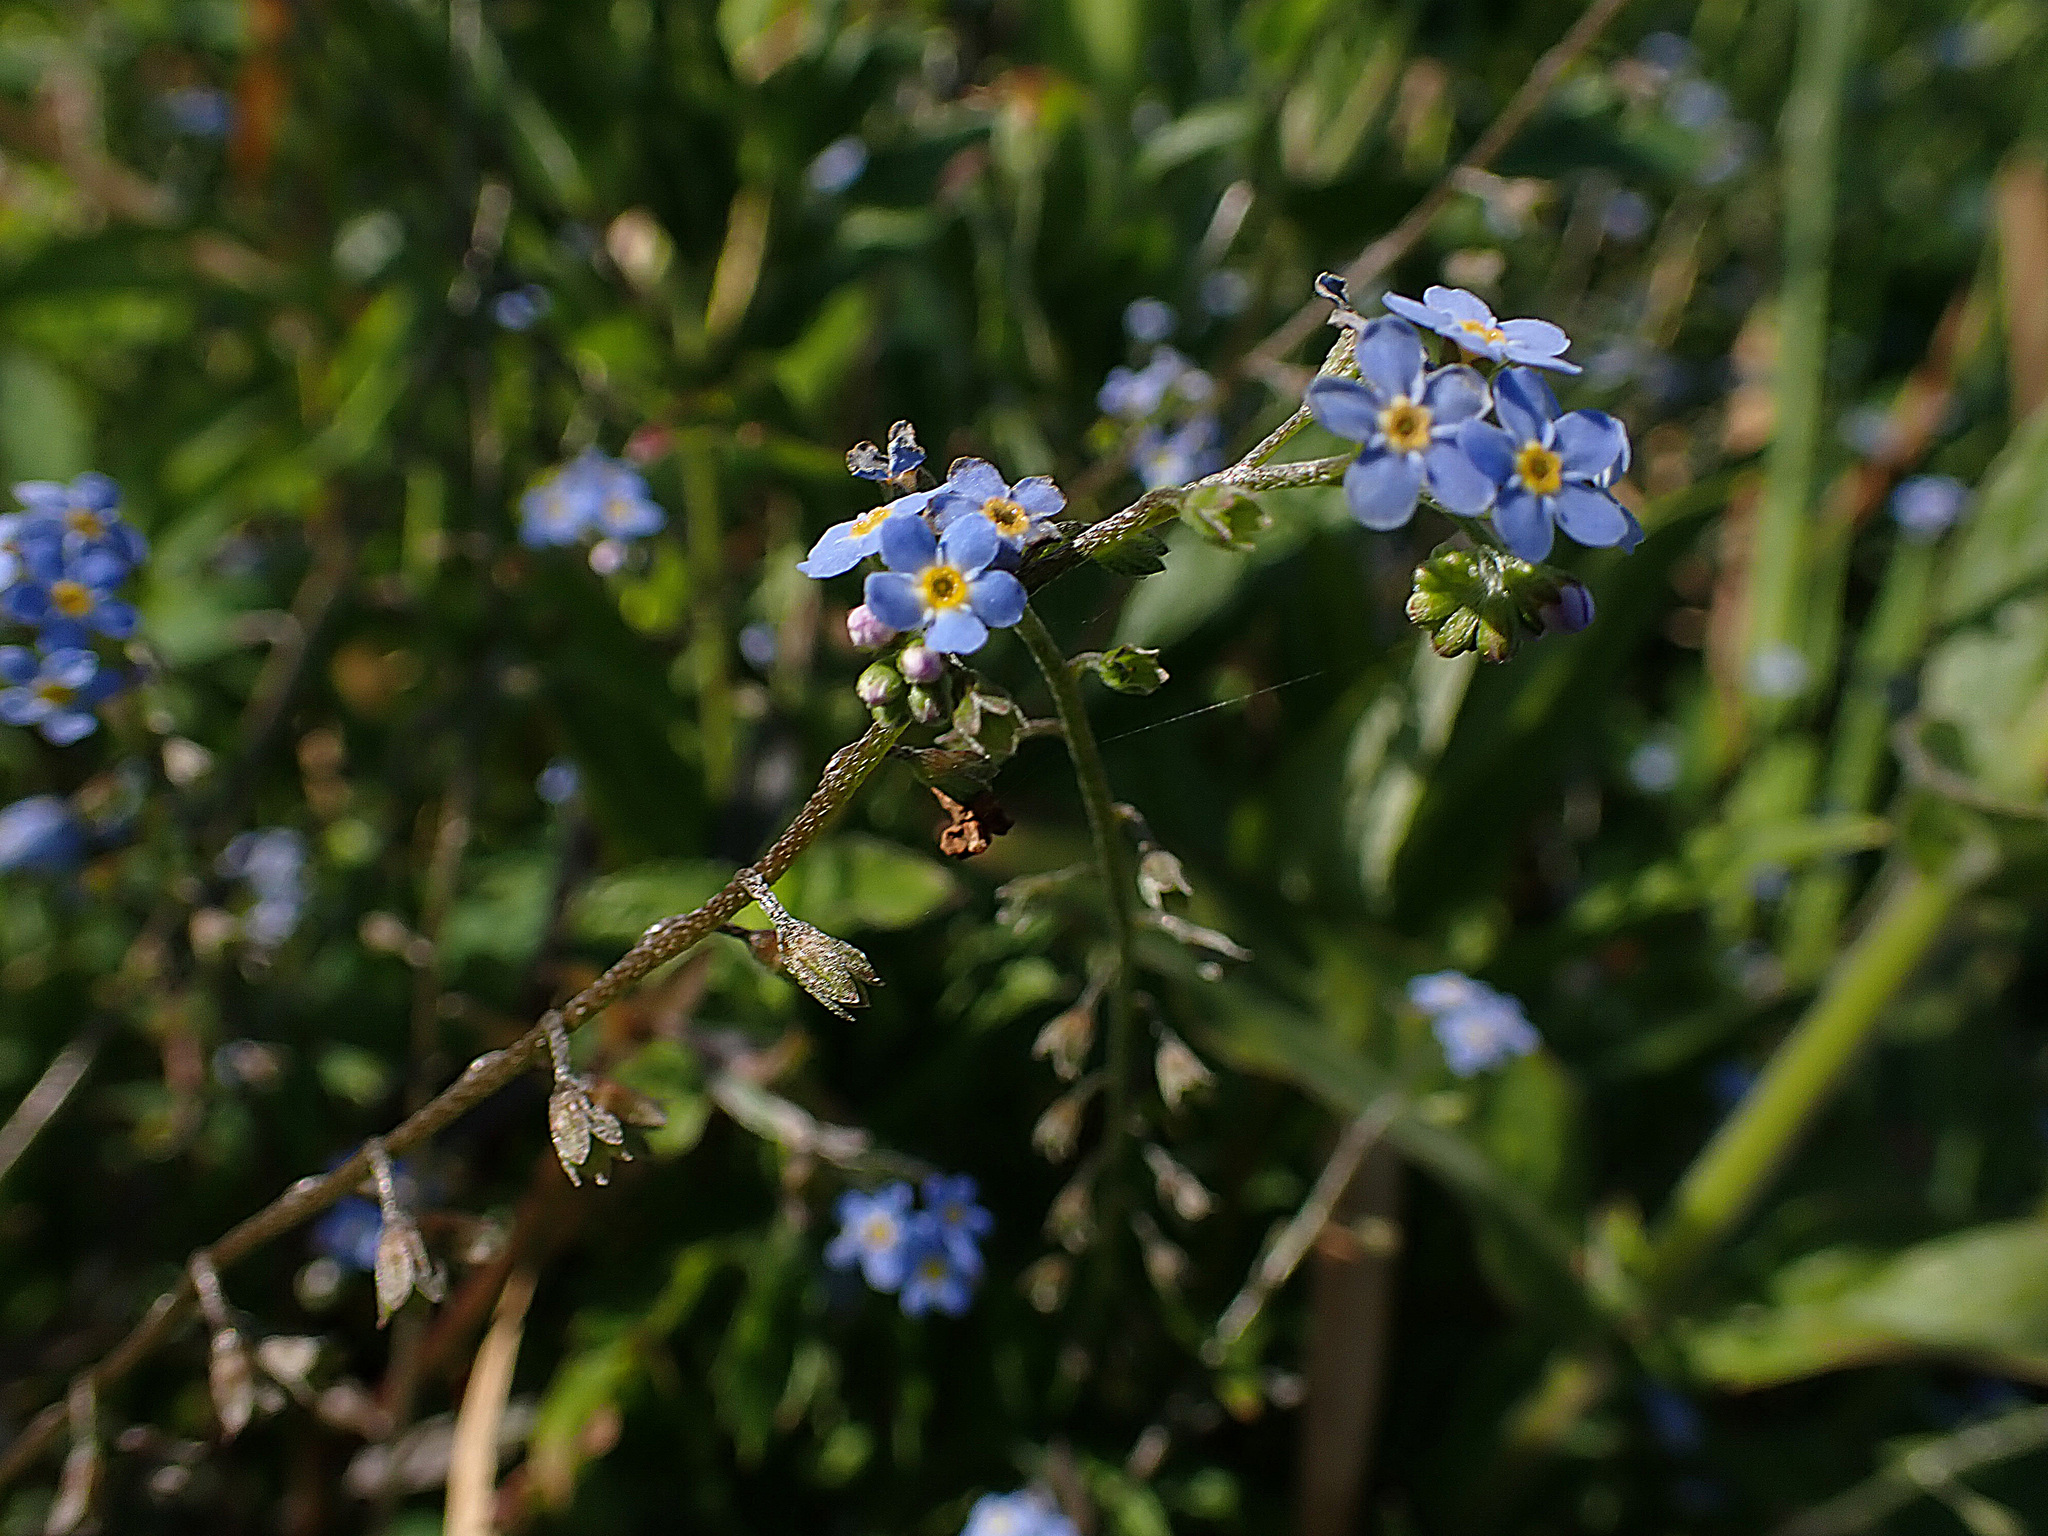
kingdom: Plantae
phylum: Tracheophyta
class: Magnoliopsida
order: Boraginales
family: Boraginaceae
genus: Myosotis
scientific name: Myosotis scorpioides
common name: Water forget-me-not
